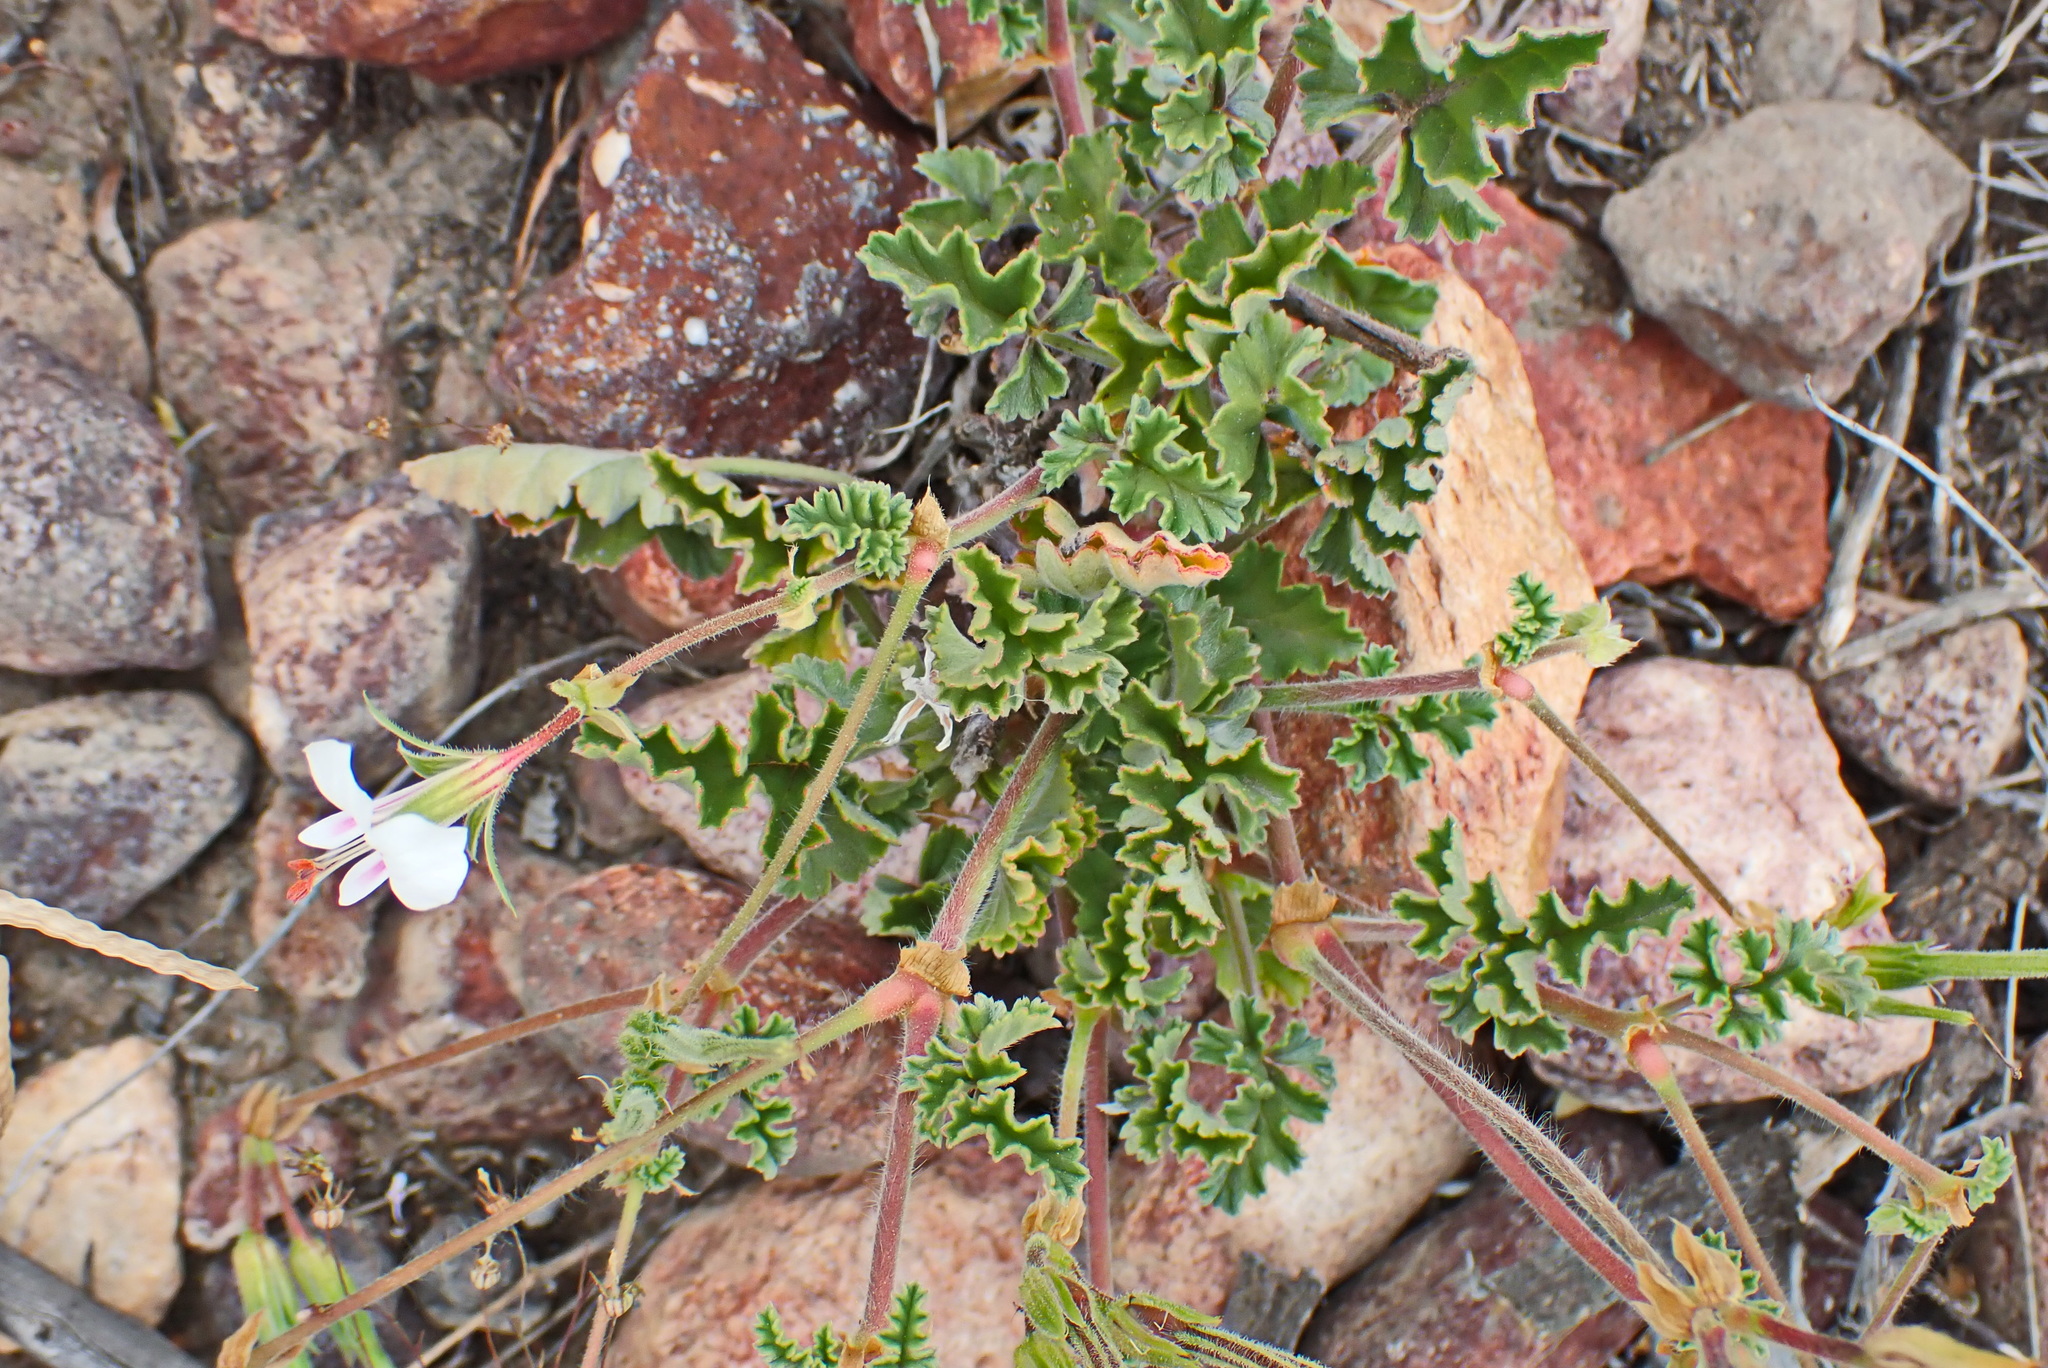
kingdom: Plantae
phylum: Tracheophyta
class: Magnoliopsida
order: Geraniales
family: Geraniaceae
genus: Pelargonium
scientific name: Pelargonium candicans
